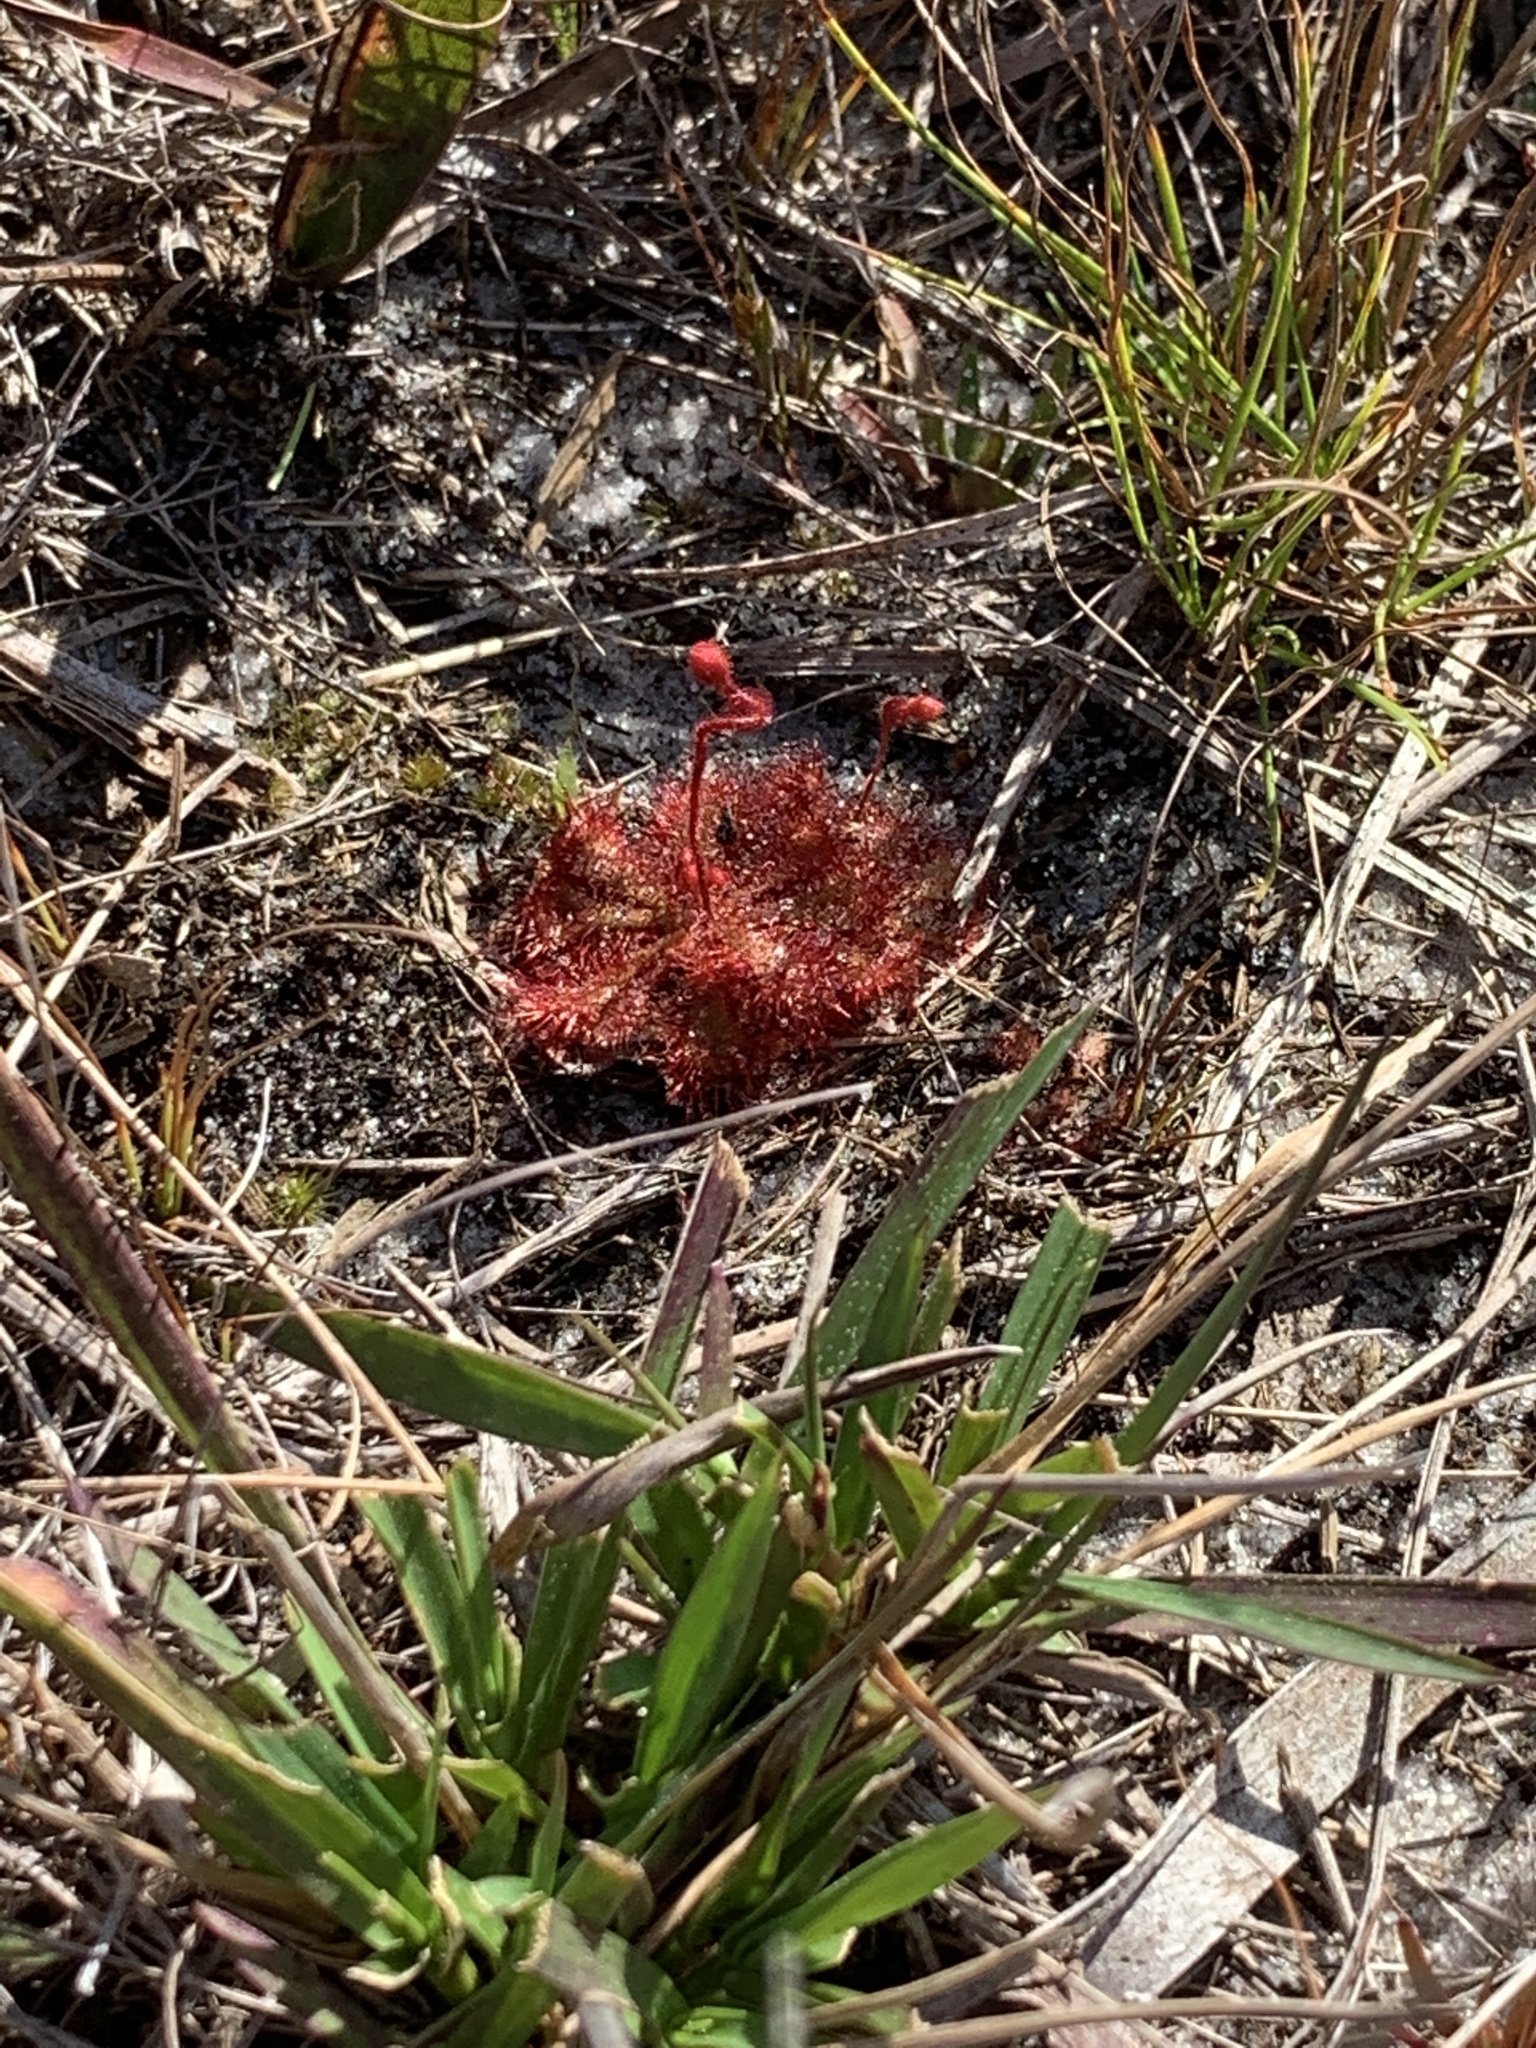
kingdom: Plantae
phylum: Tracheophyta
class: Magnoliopsida
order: Caryophyllales
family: Droseraceae
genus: Drosera
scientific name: Drosera brevifolia
